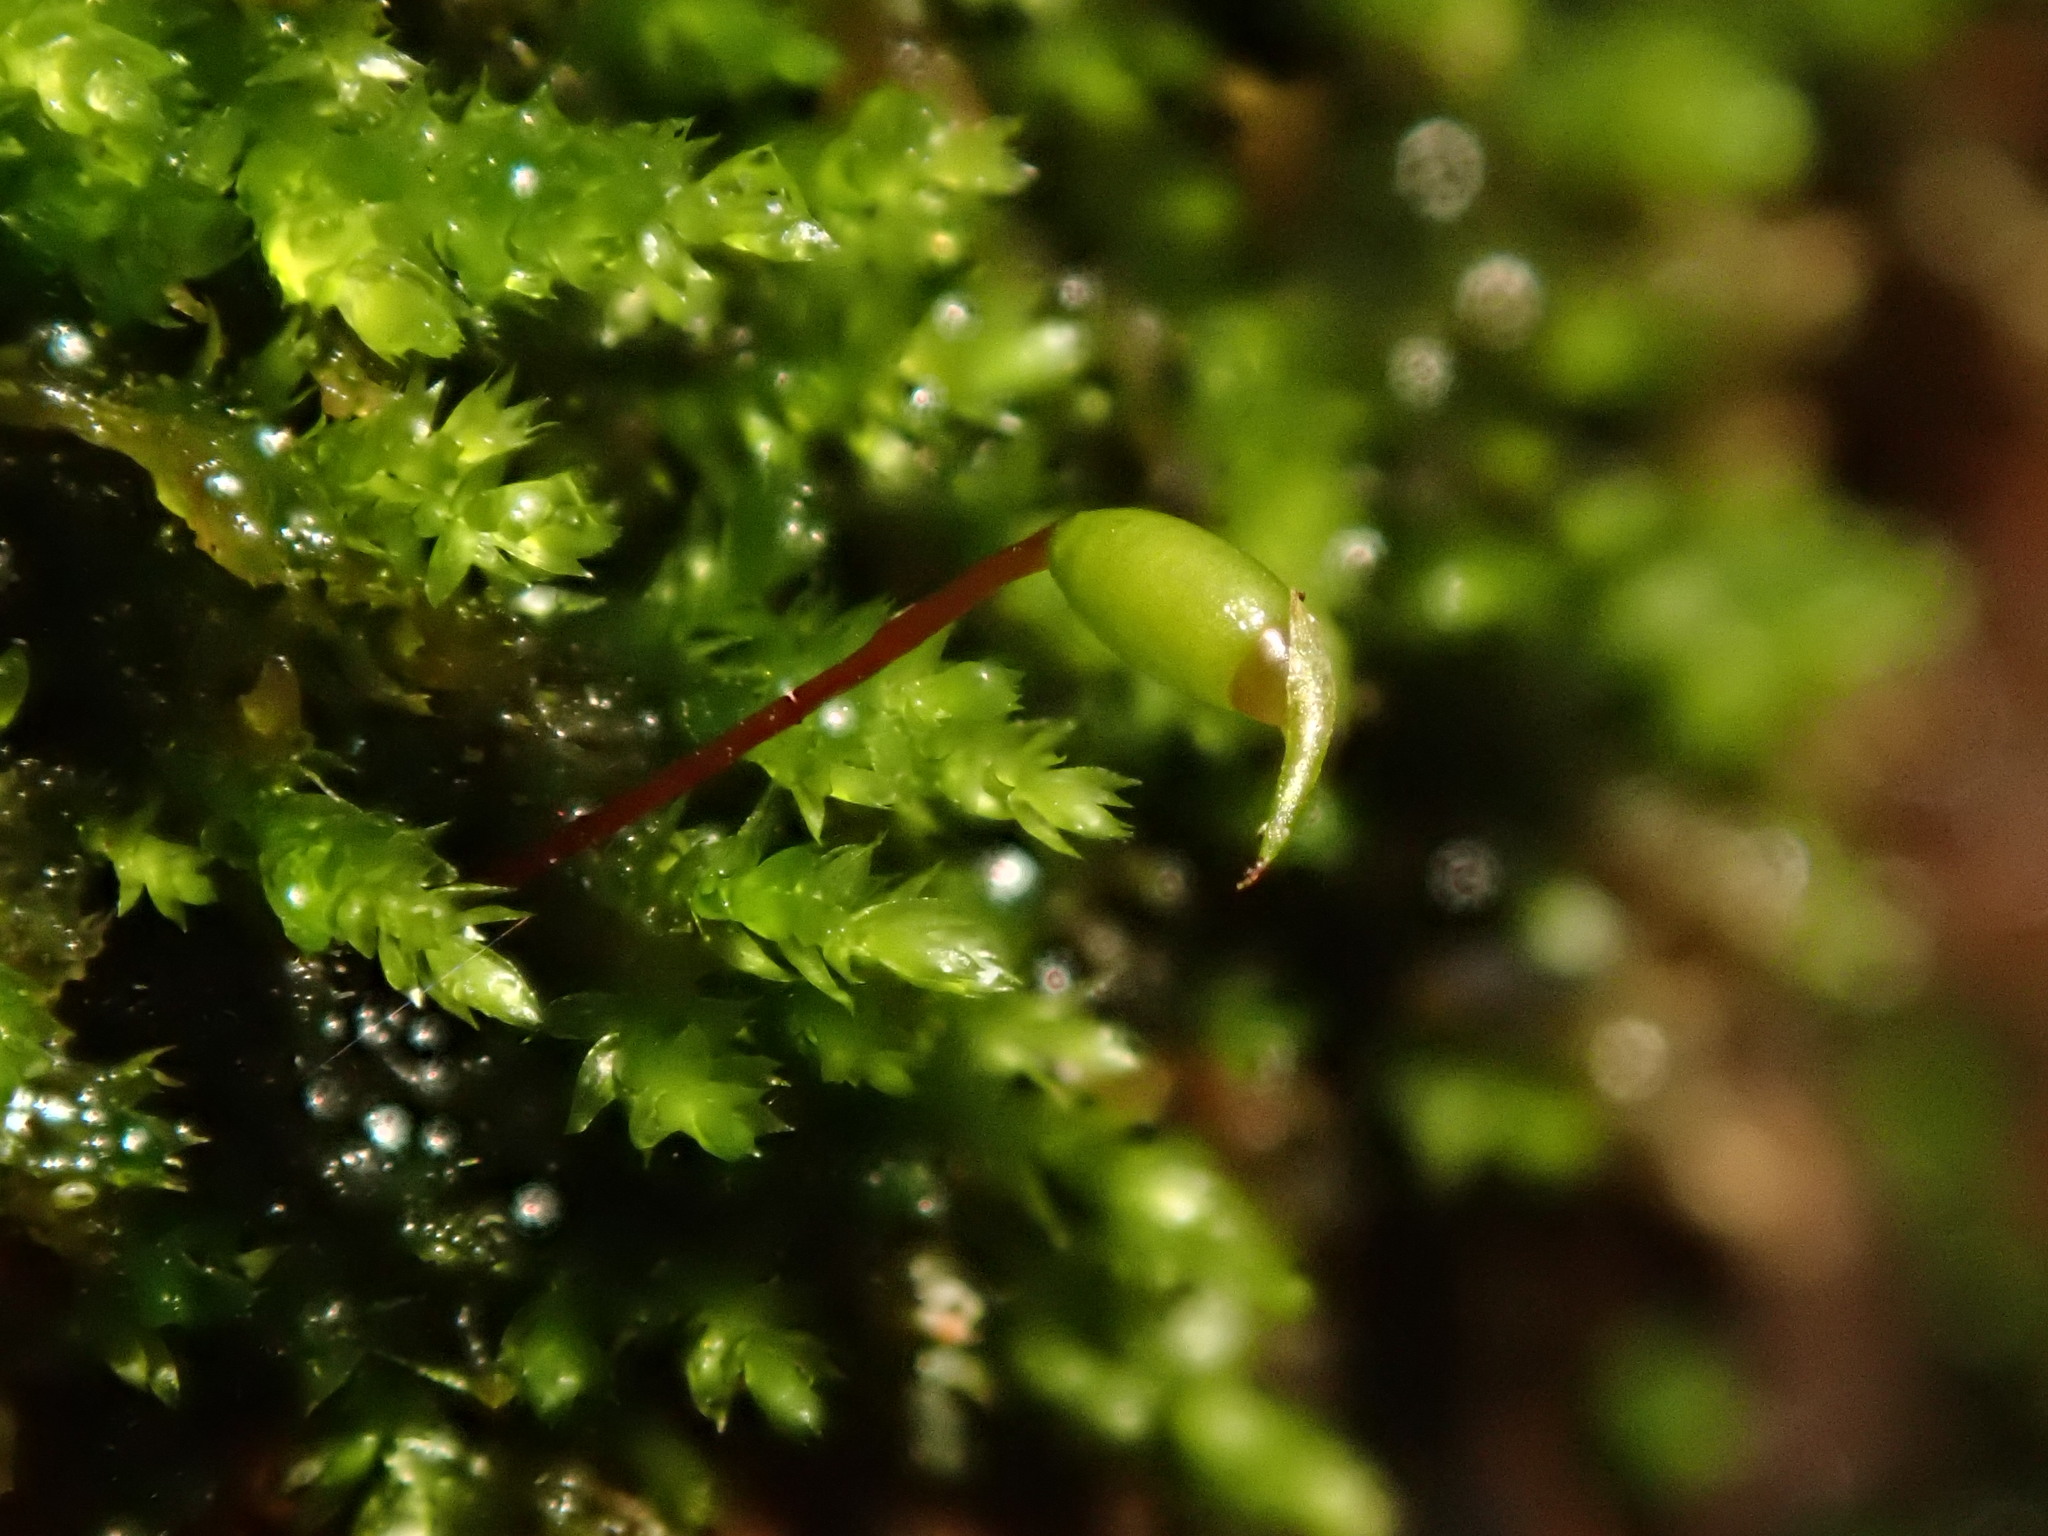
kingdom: Plantae
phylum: Bryophyta
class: Bryopsida
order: Hypnales
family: Brachytheciaceae
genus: Rhynchostegium
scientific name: Rhynchostegium confertum
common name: Clustered feather-moss
